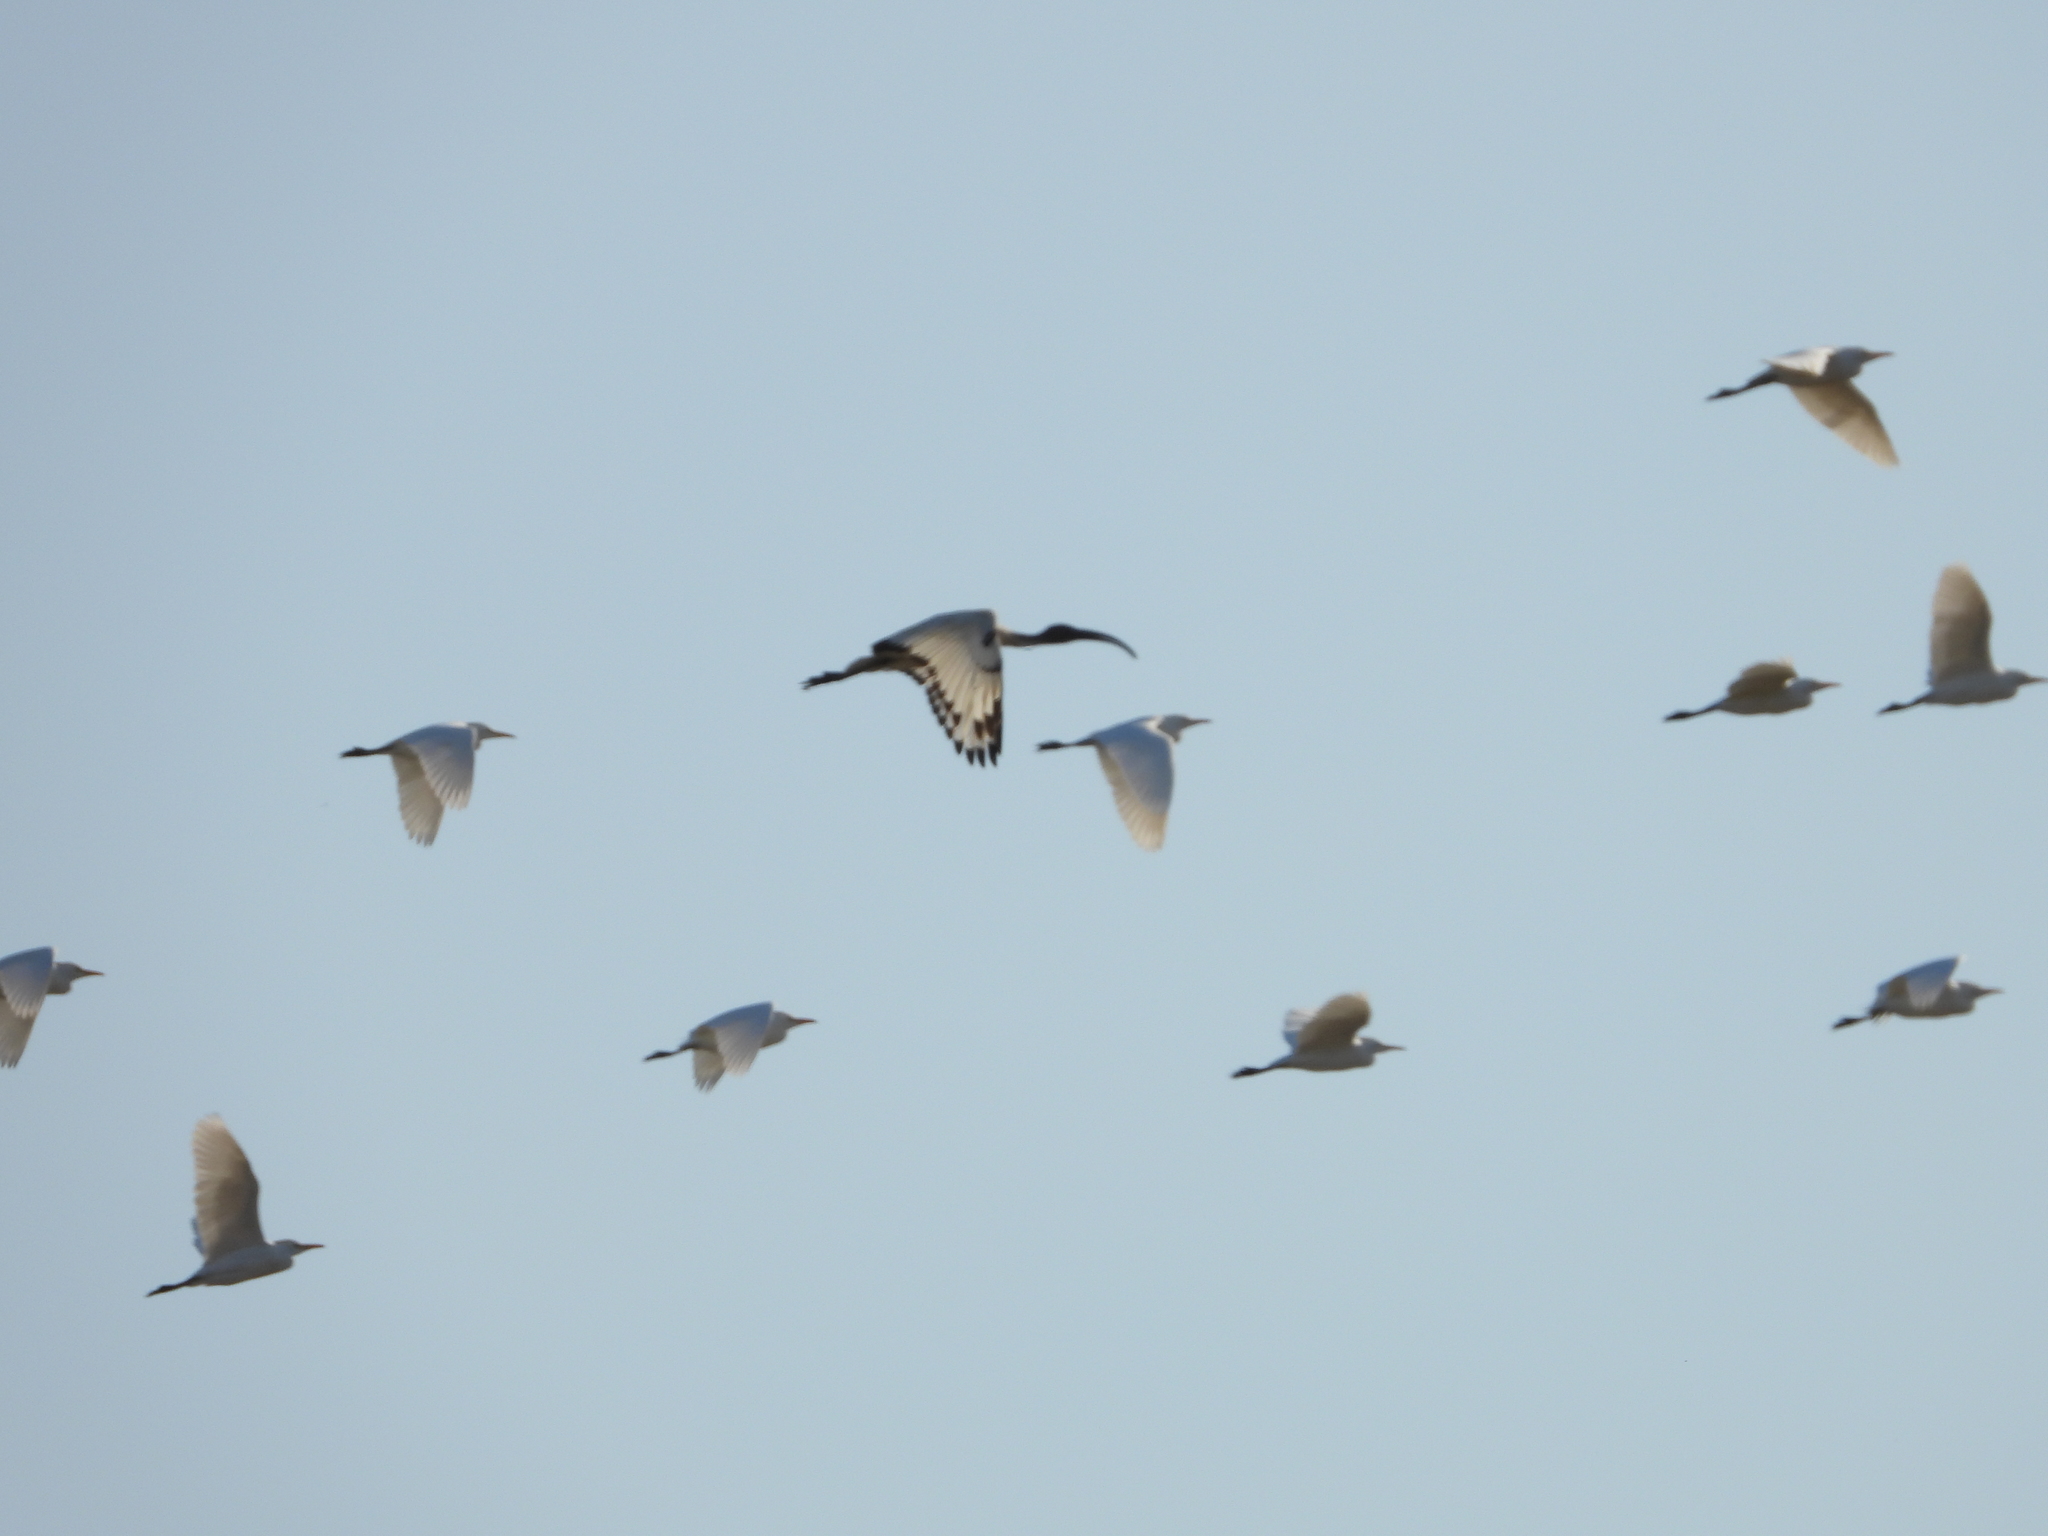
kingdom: Animalia
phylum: Chordata
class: Aves
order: Pelecaniformes
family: Threskiornithidae
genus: Threskiornis
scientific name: Threskiornis aethiopicus
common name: Sacred ibis
